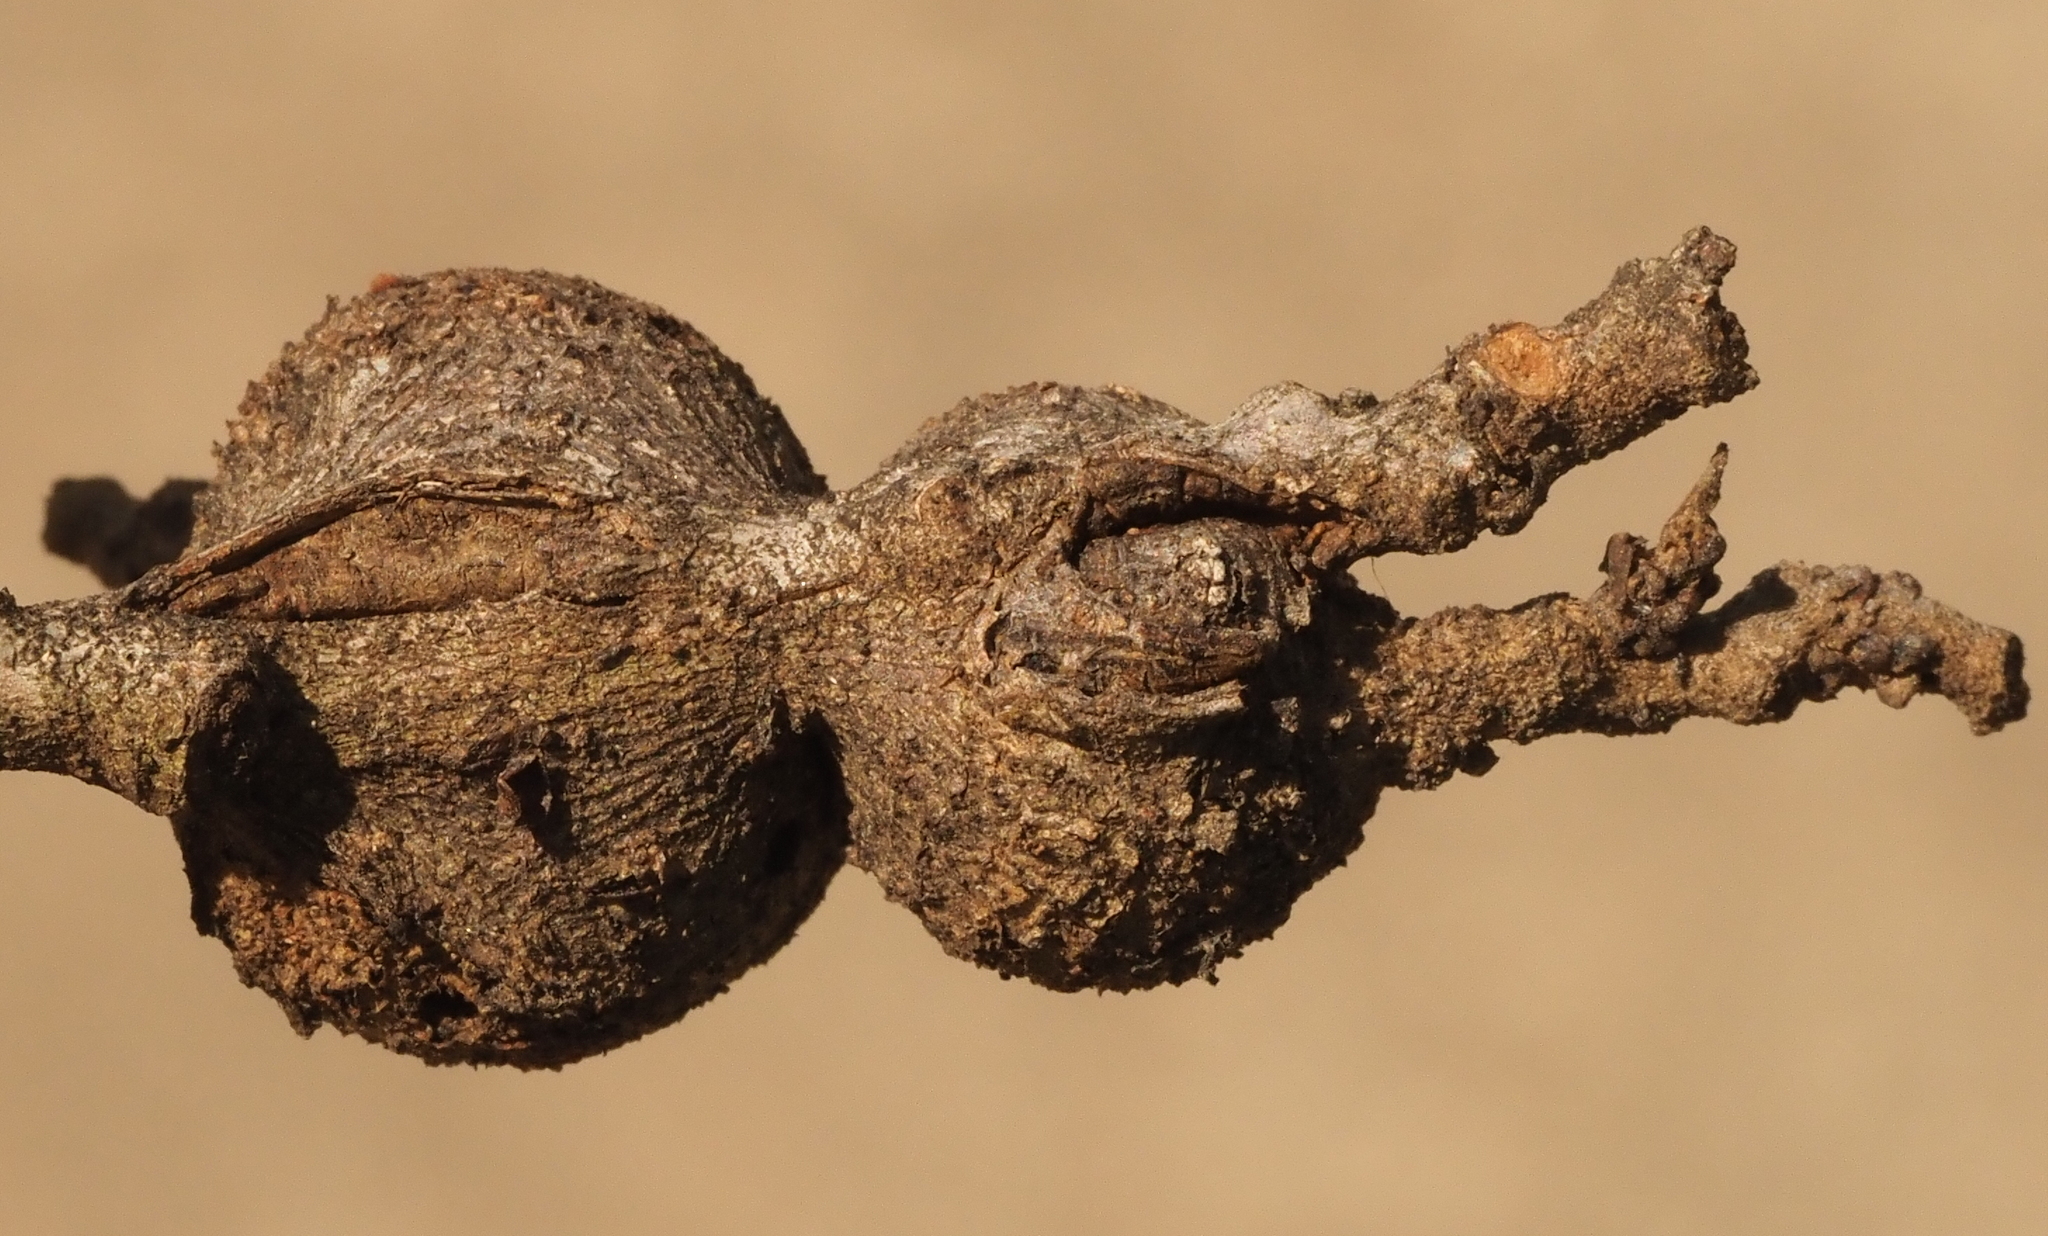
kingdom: Animalia
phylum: Arthropoda
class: Insecta
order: Hymenoptera
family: Cynipidae
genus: Callirhytis
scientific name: Callirhytis
